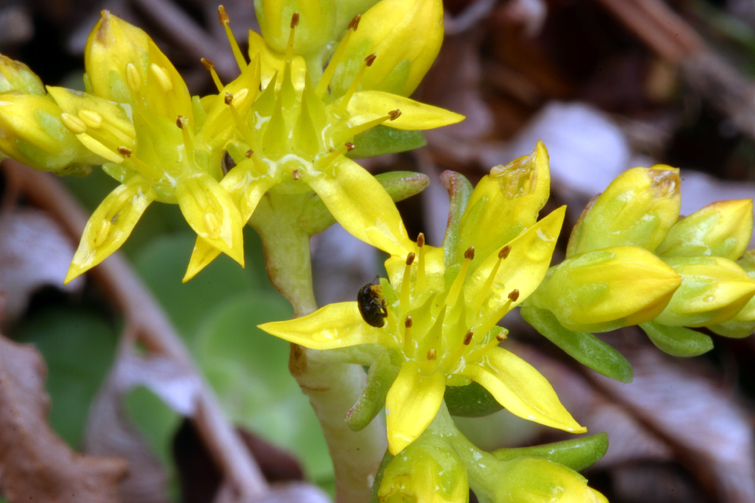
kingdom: Plantae
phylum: Tracheophyta
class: Magnoliopsida
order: Saxifragales
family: Crassulaceae
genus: Sedum
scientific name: Sedum spathulifolium
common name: Colorado stonecrop
